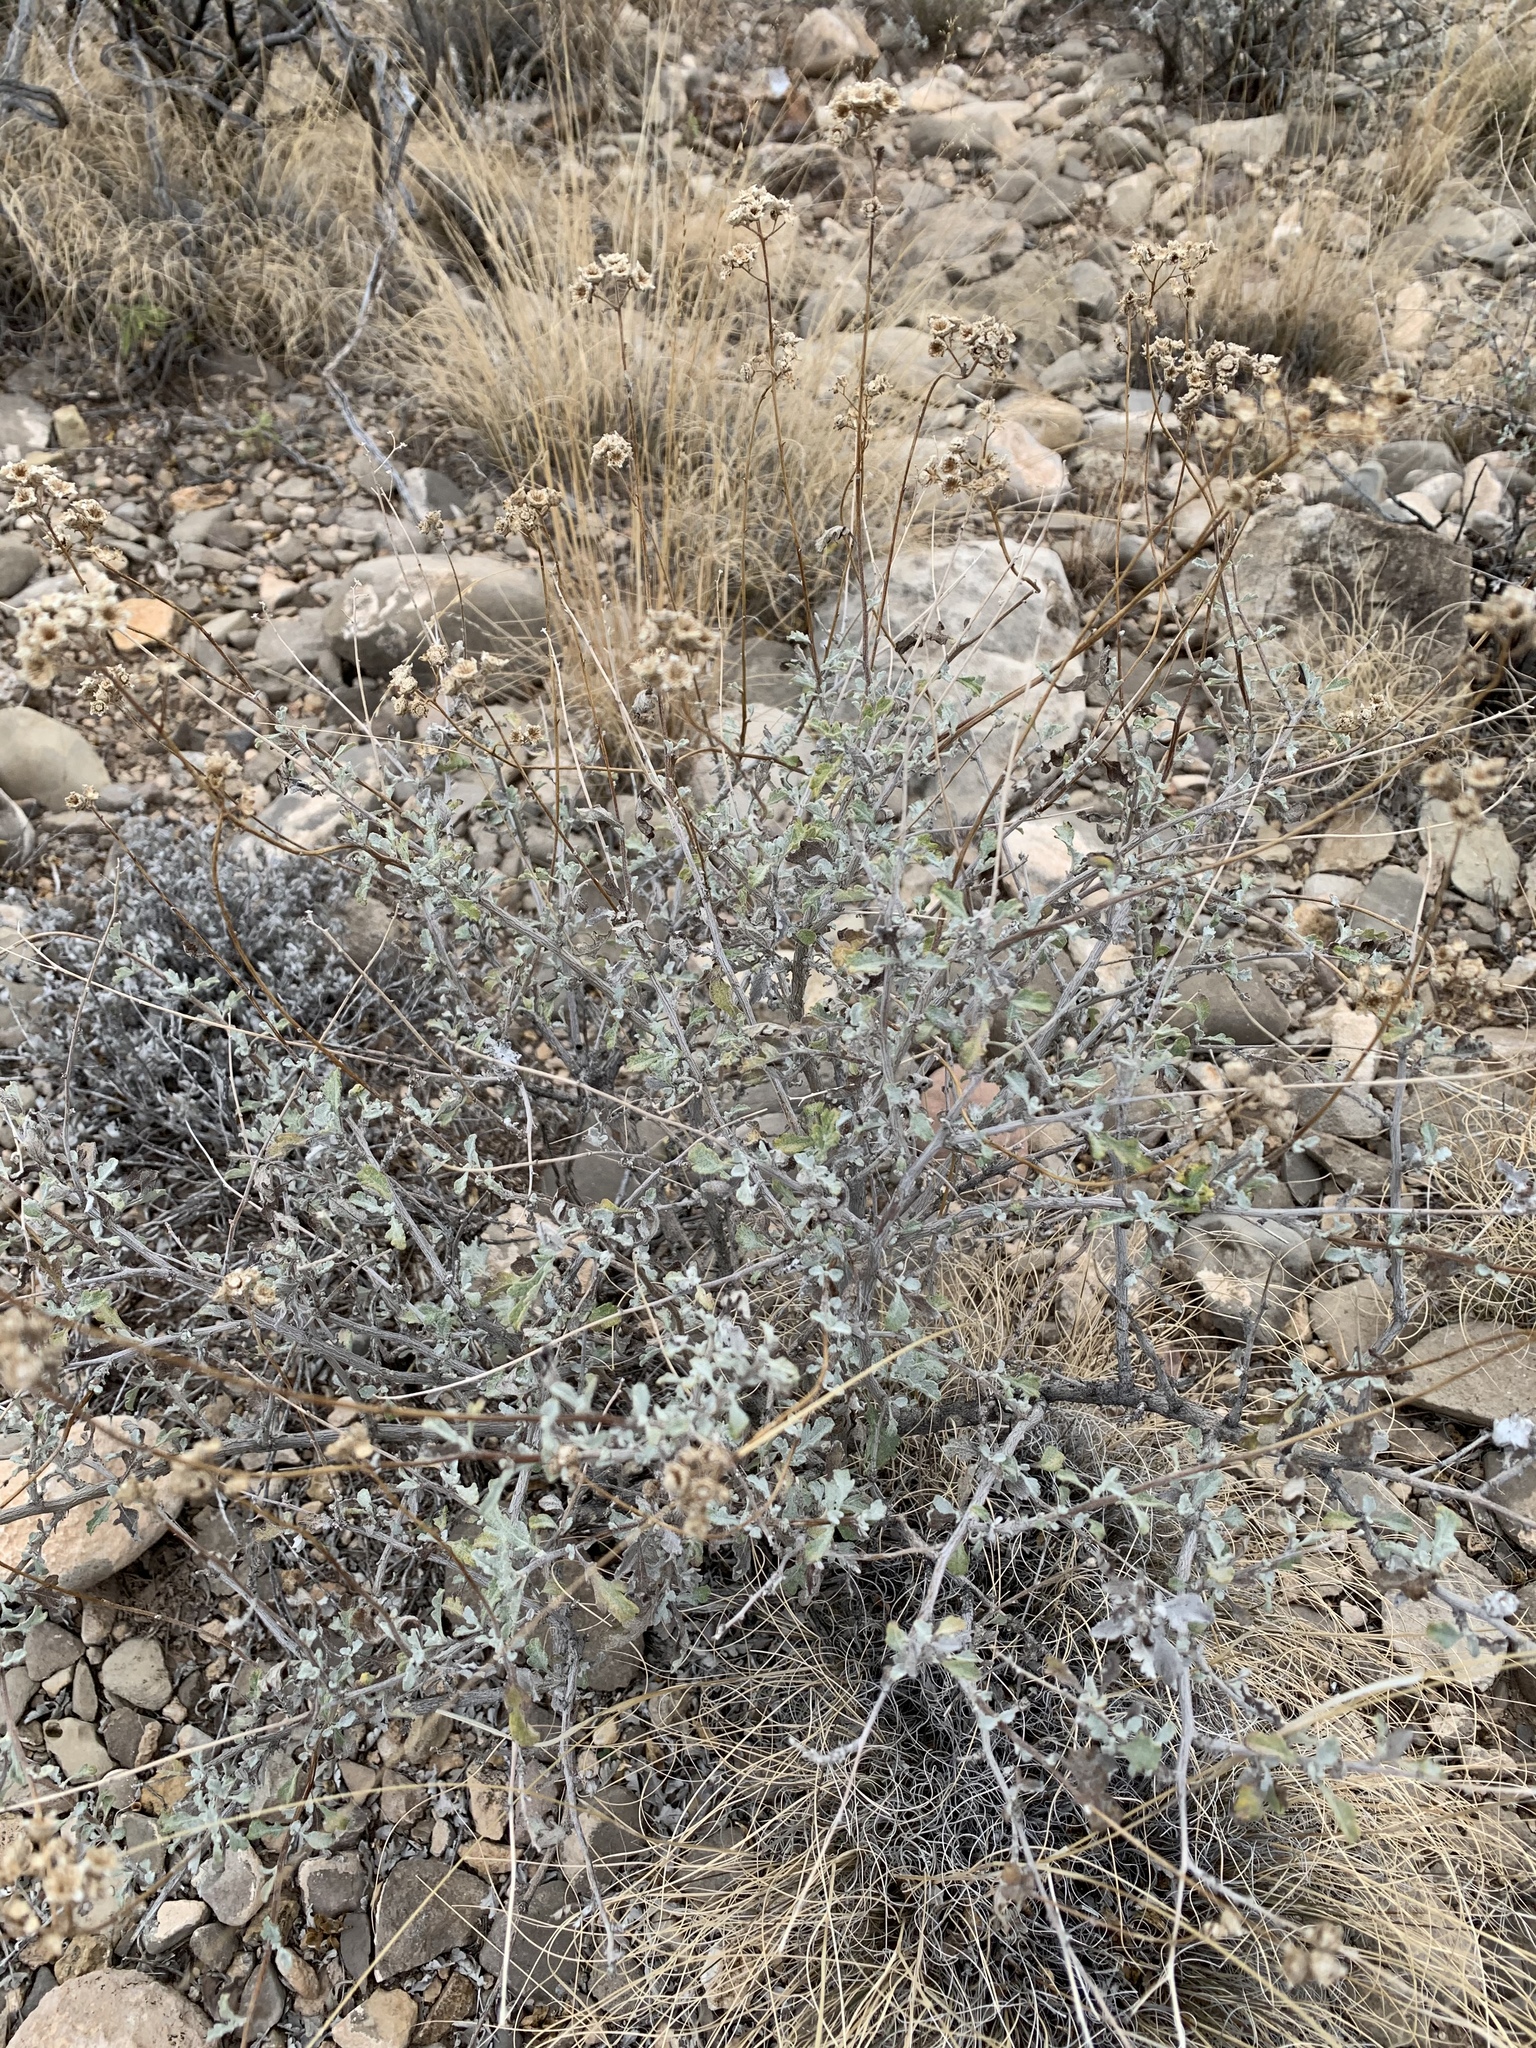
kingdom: Plantae
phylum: Tracheophyta
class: Magnoliopsida
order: Asterales
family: Asteraceae
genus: Parthenium
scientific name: Parthenium incanum
